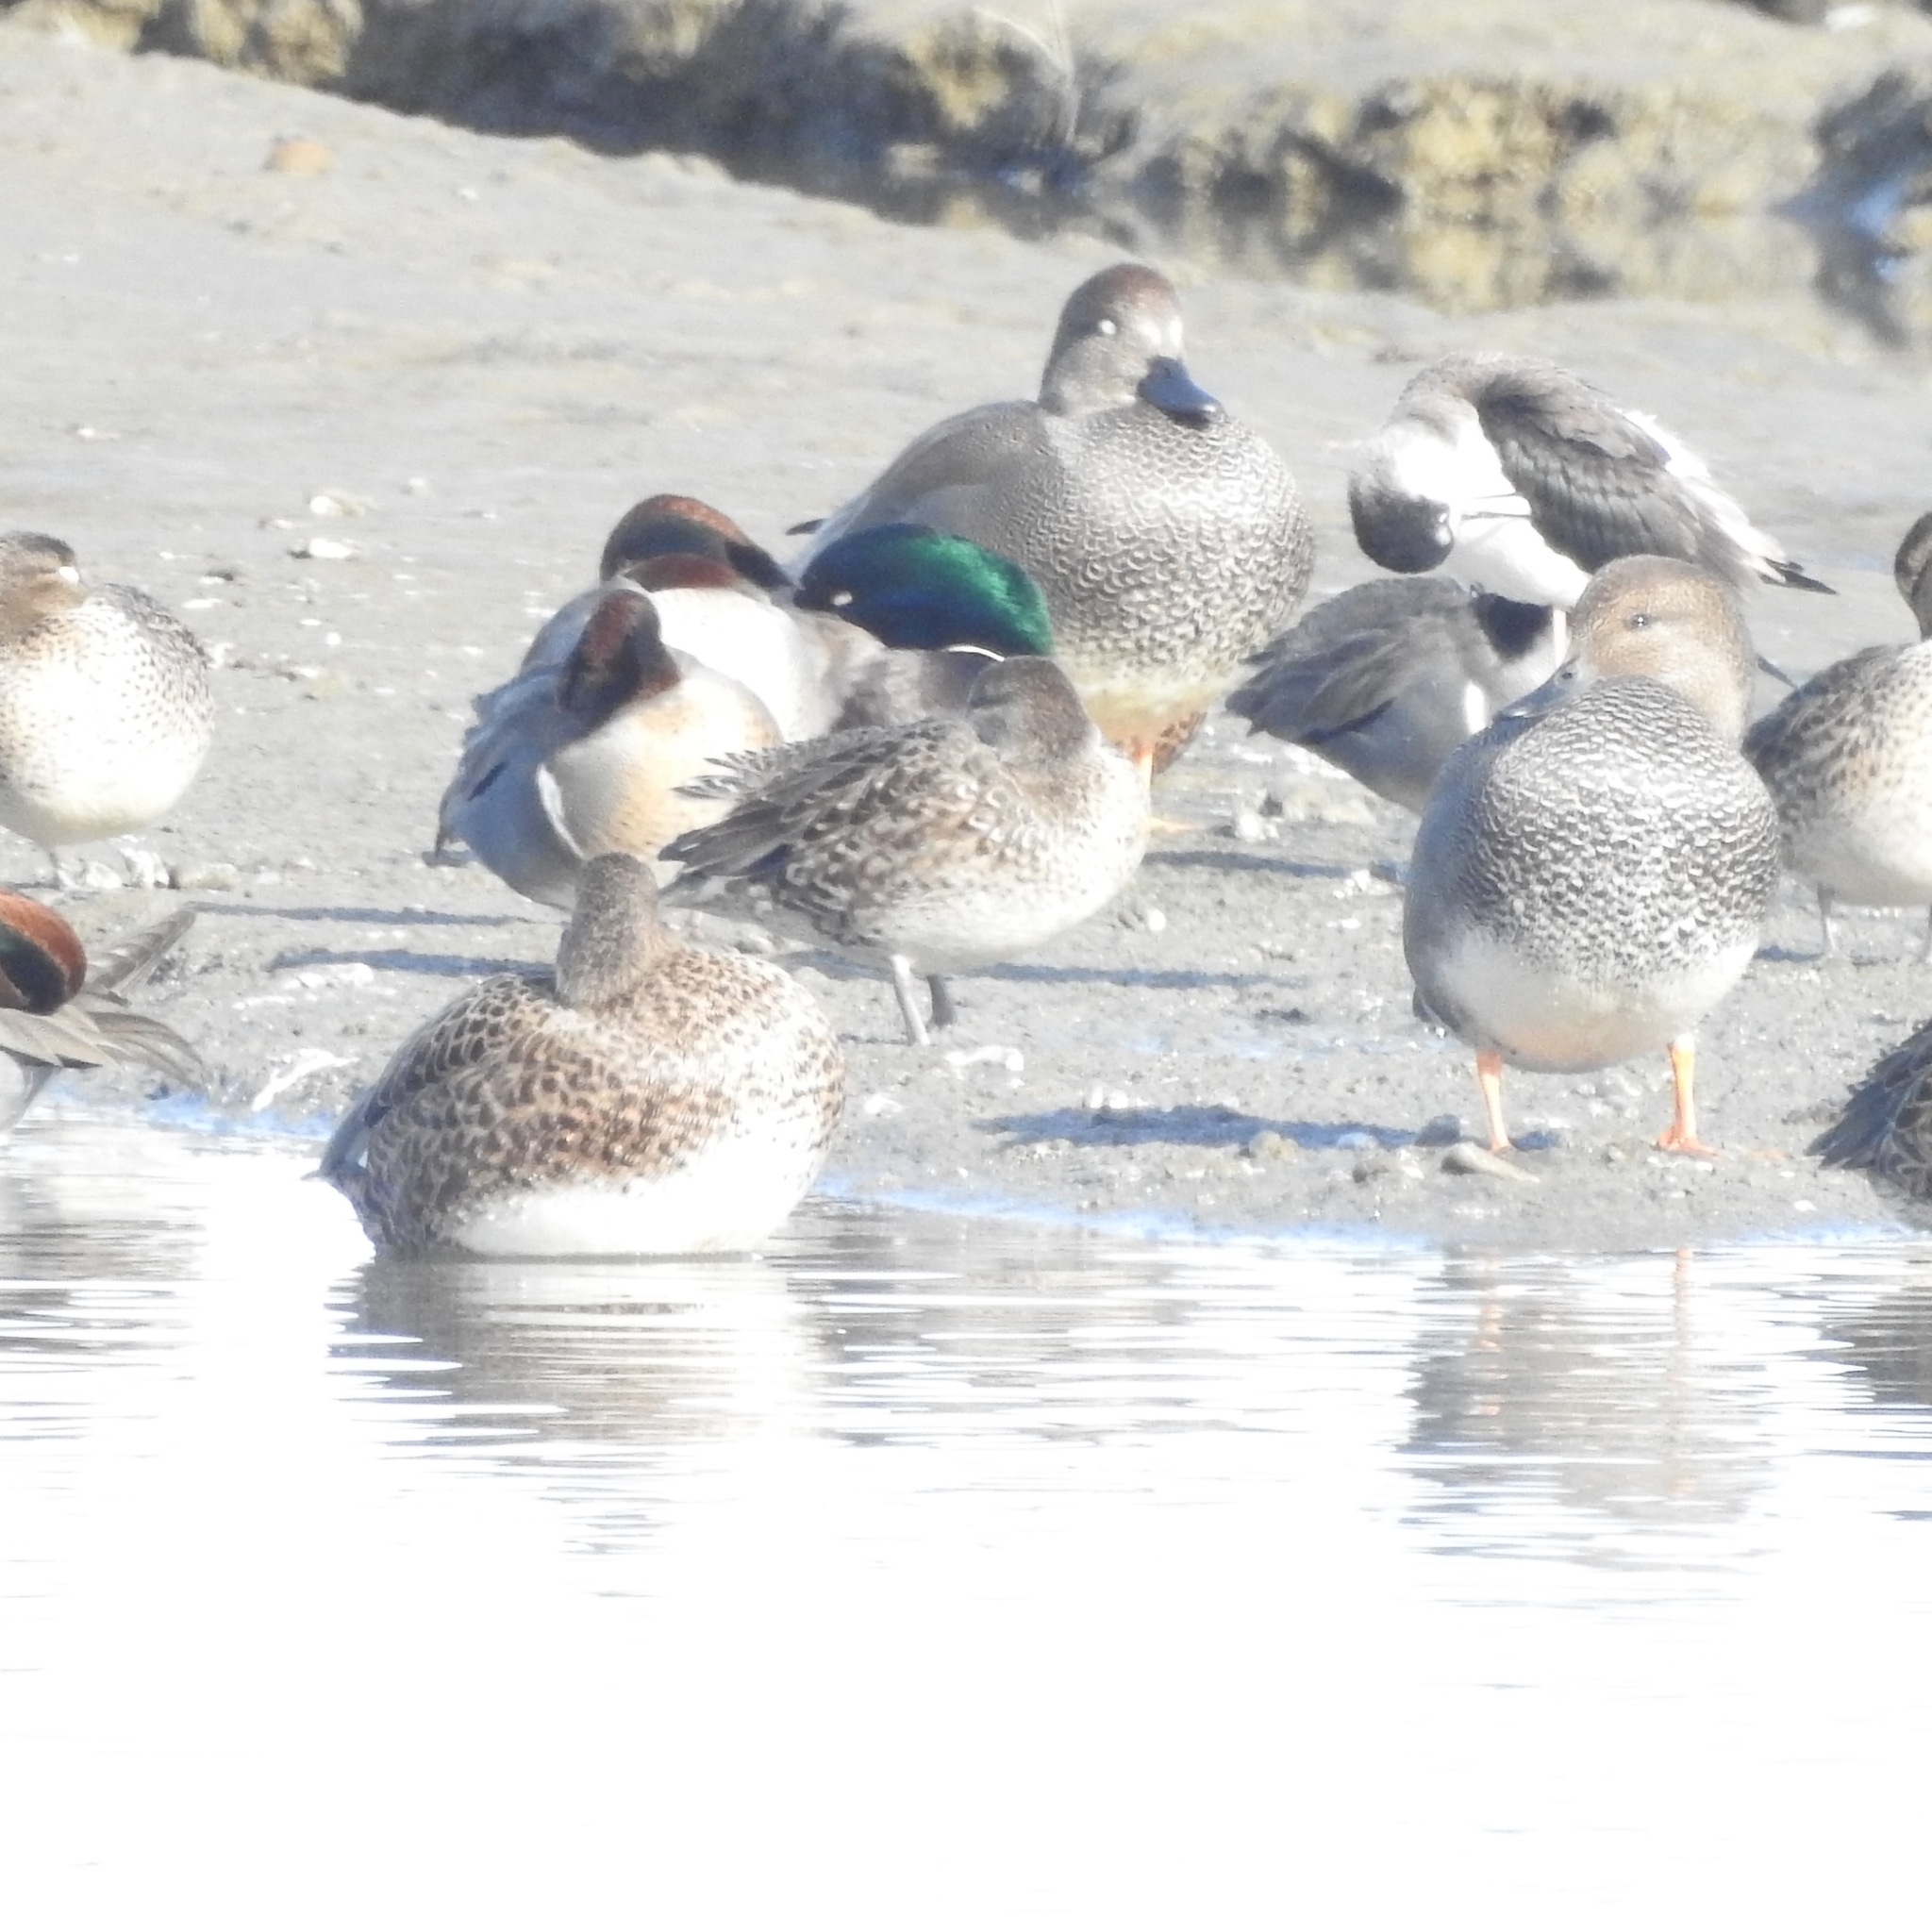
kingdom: Animalia
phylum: Chordata
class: Aves
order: Anseriformes
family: Anatidae
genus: Mareca
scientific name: Mareca strepera
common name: Gadwall
